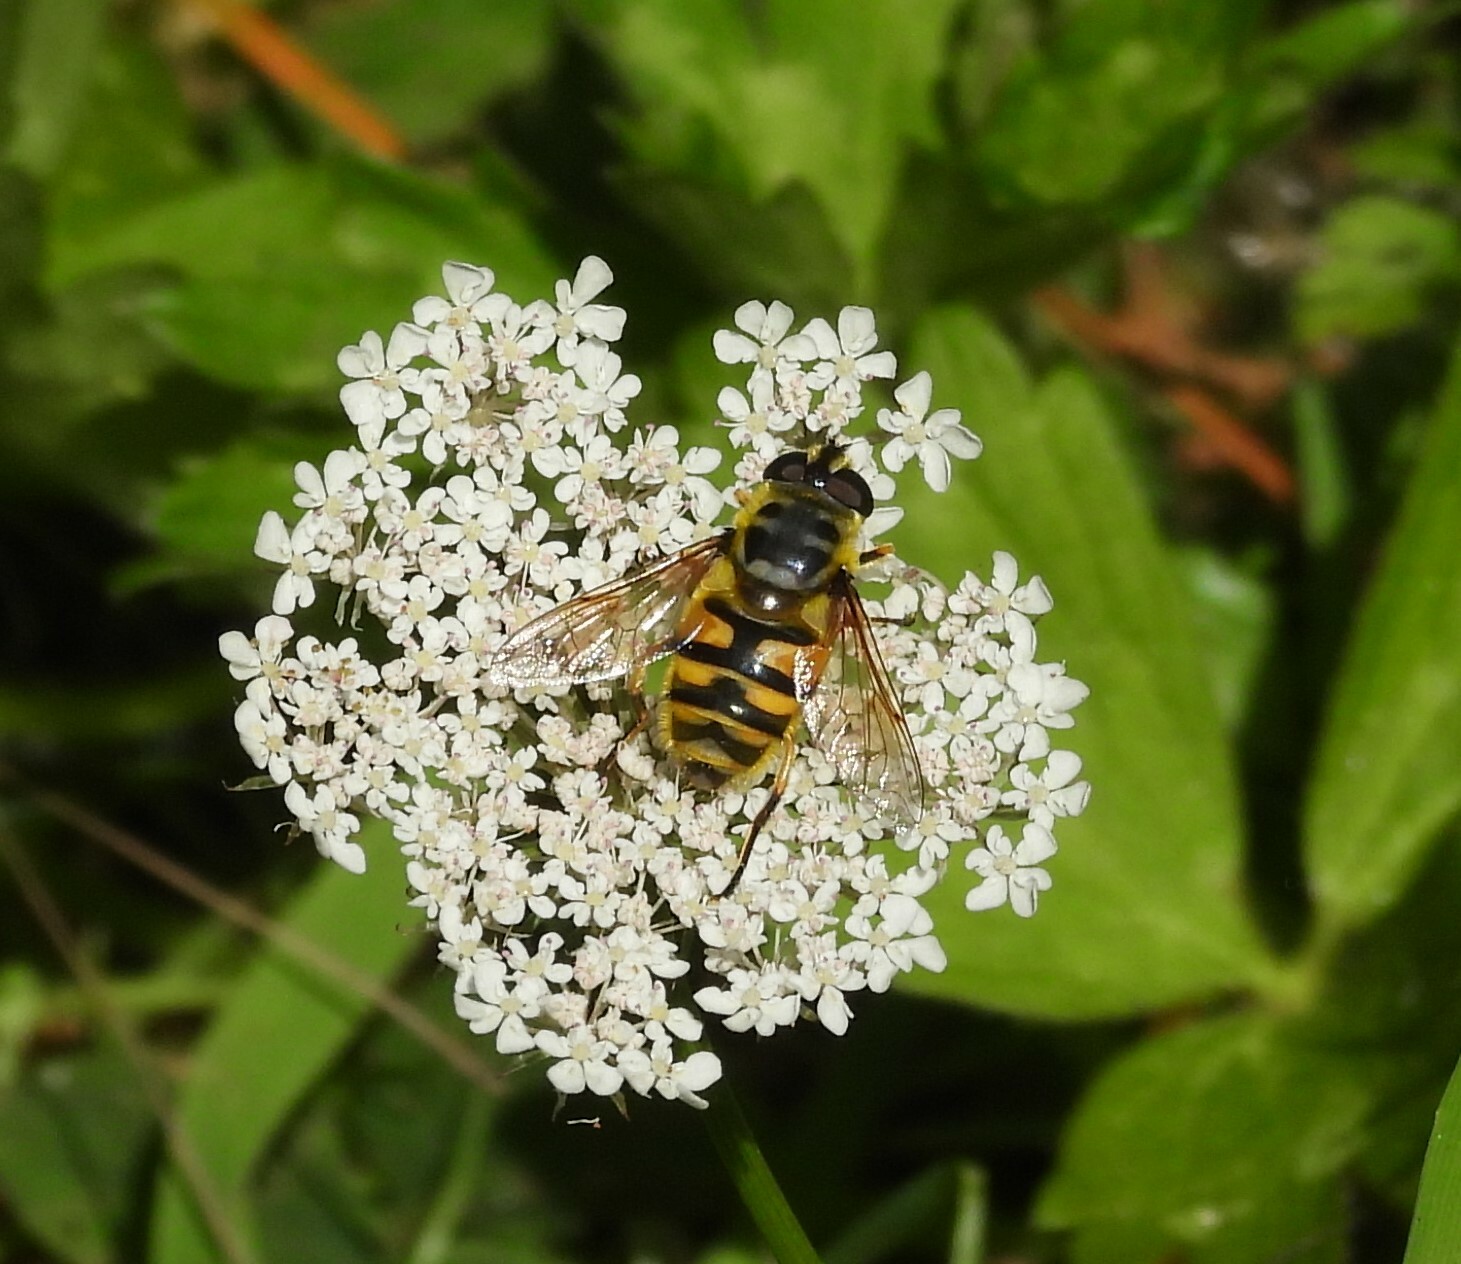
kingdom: Animalia
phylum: Arthropoda
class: Insecta
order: Diptera
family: Syrphidae
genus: Myathropa
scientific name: Myathropa florea
